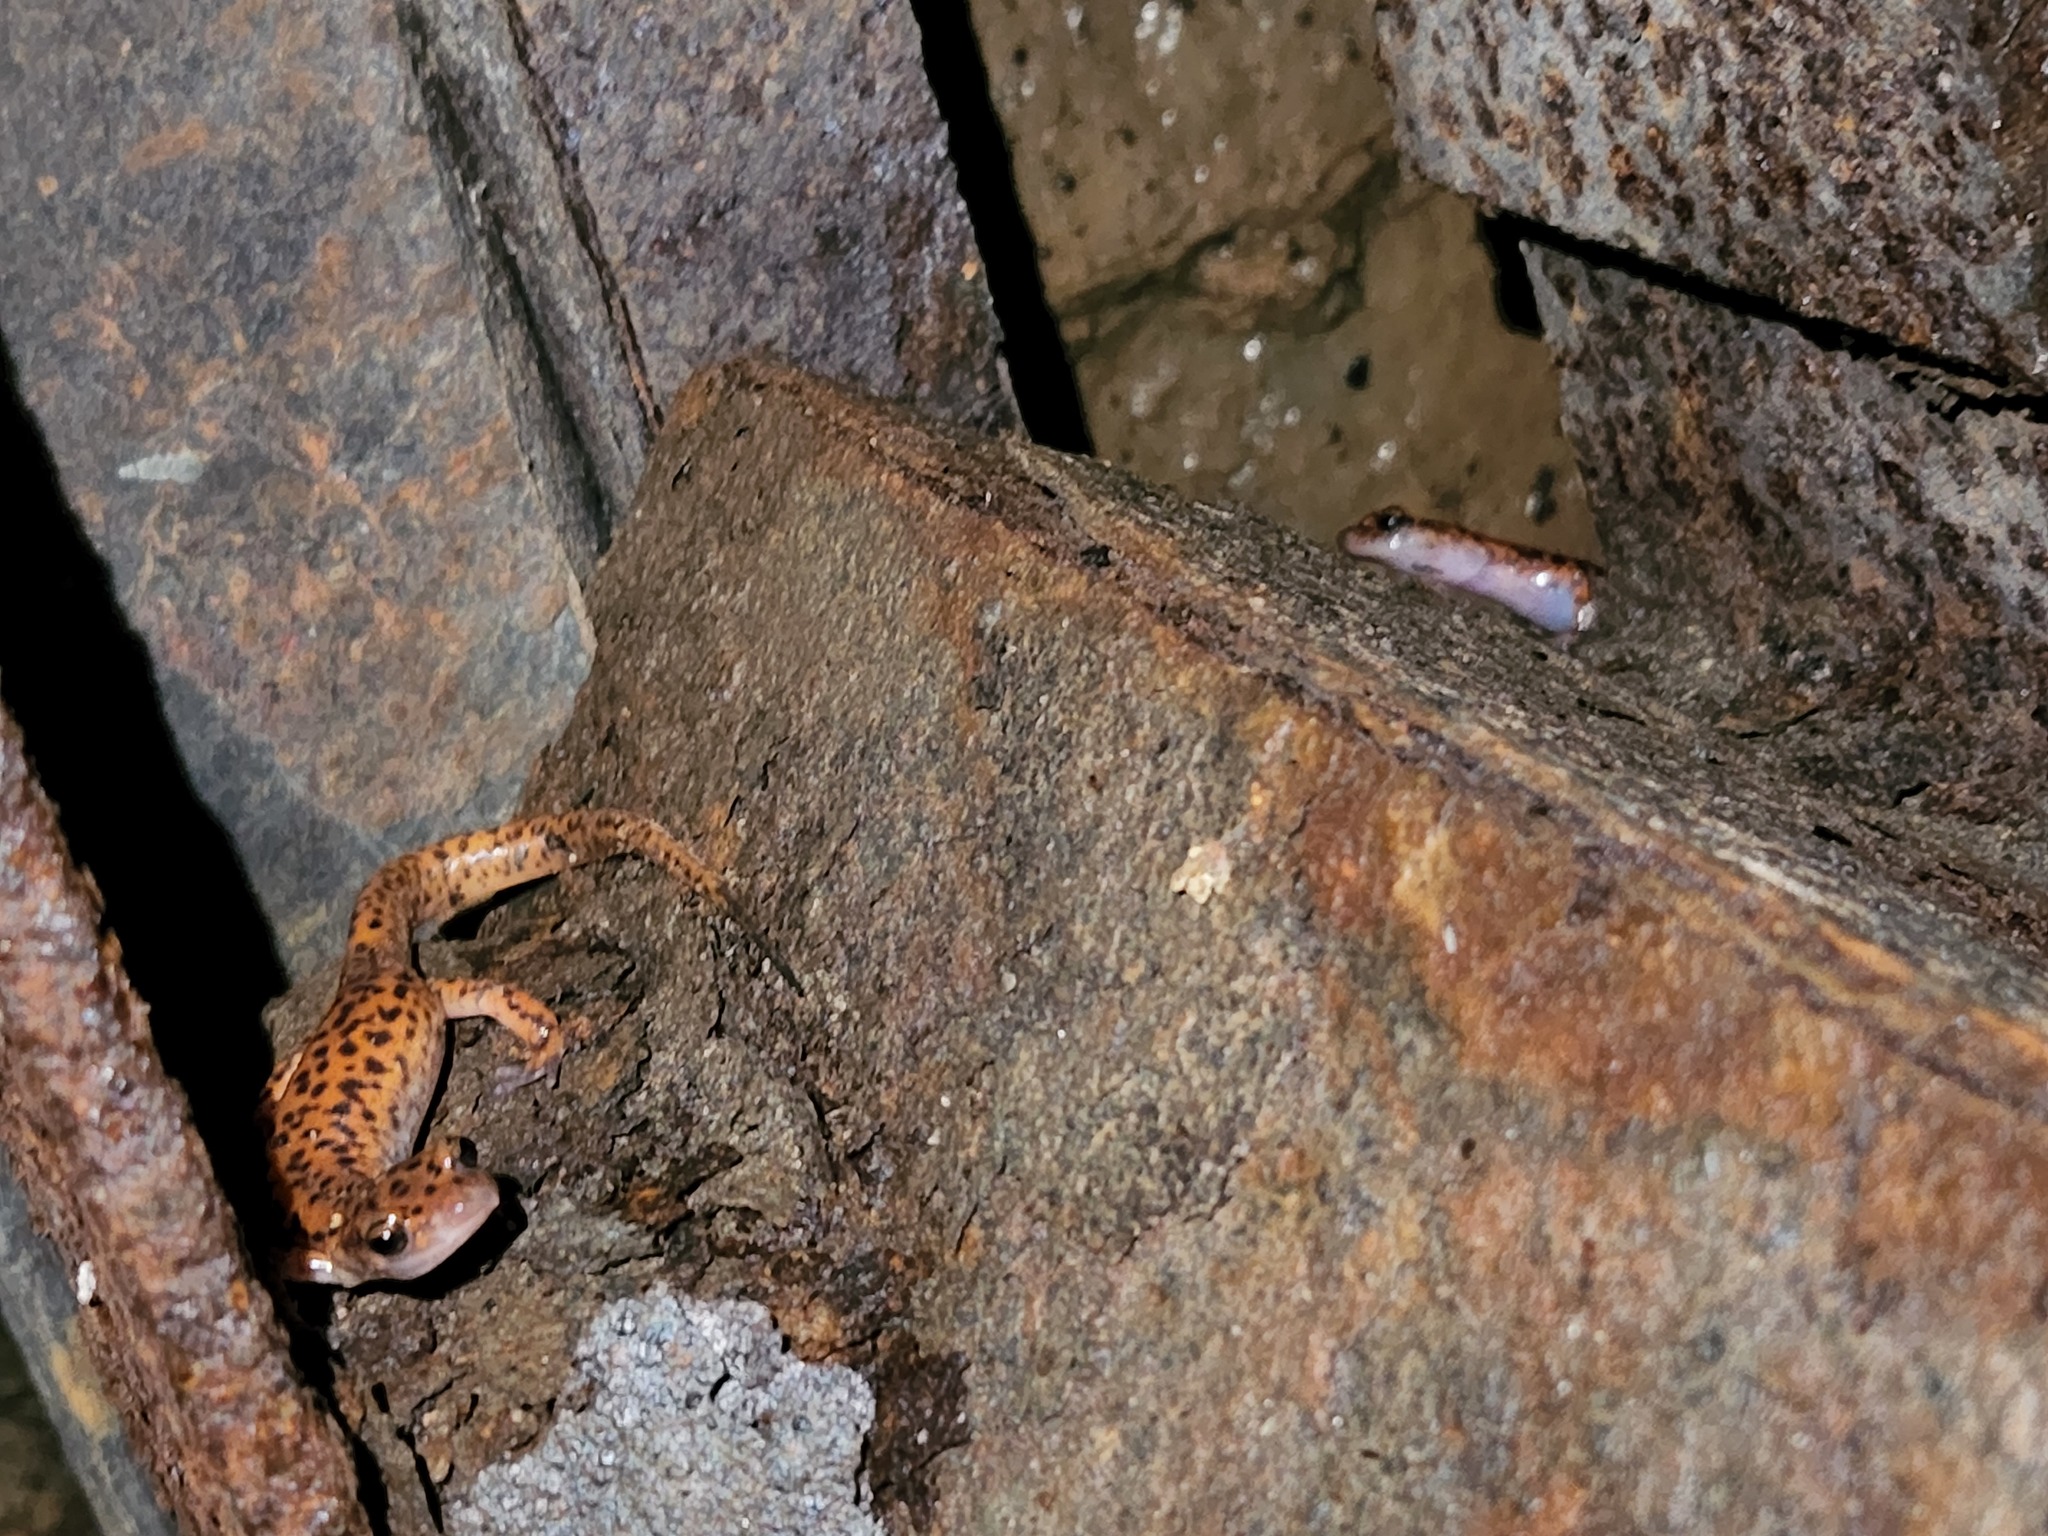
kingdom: Animalia
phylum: Chordata
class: Amphibia
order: Caudata
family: Plethodontidae
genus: Eurycea
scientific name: Eurycea lucifuga
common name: Cave salamander
